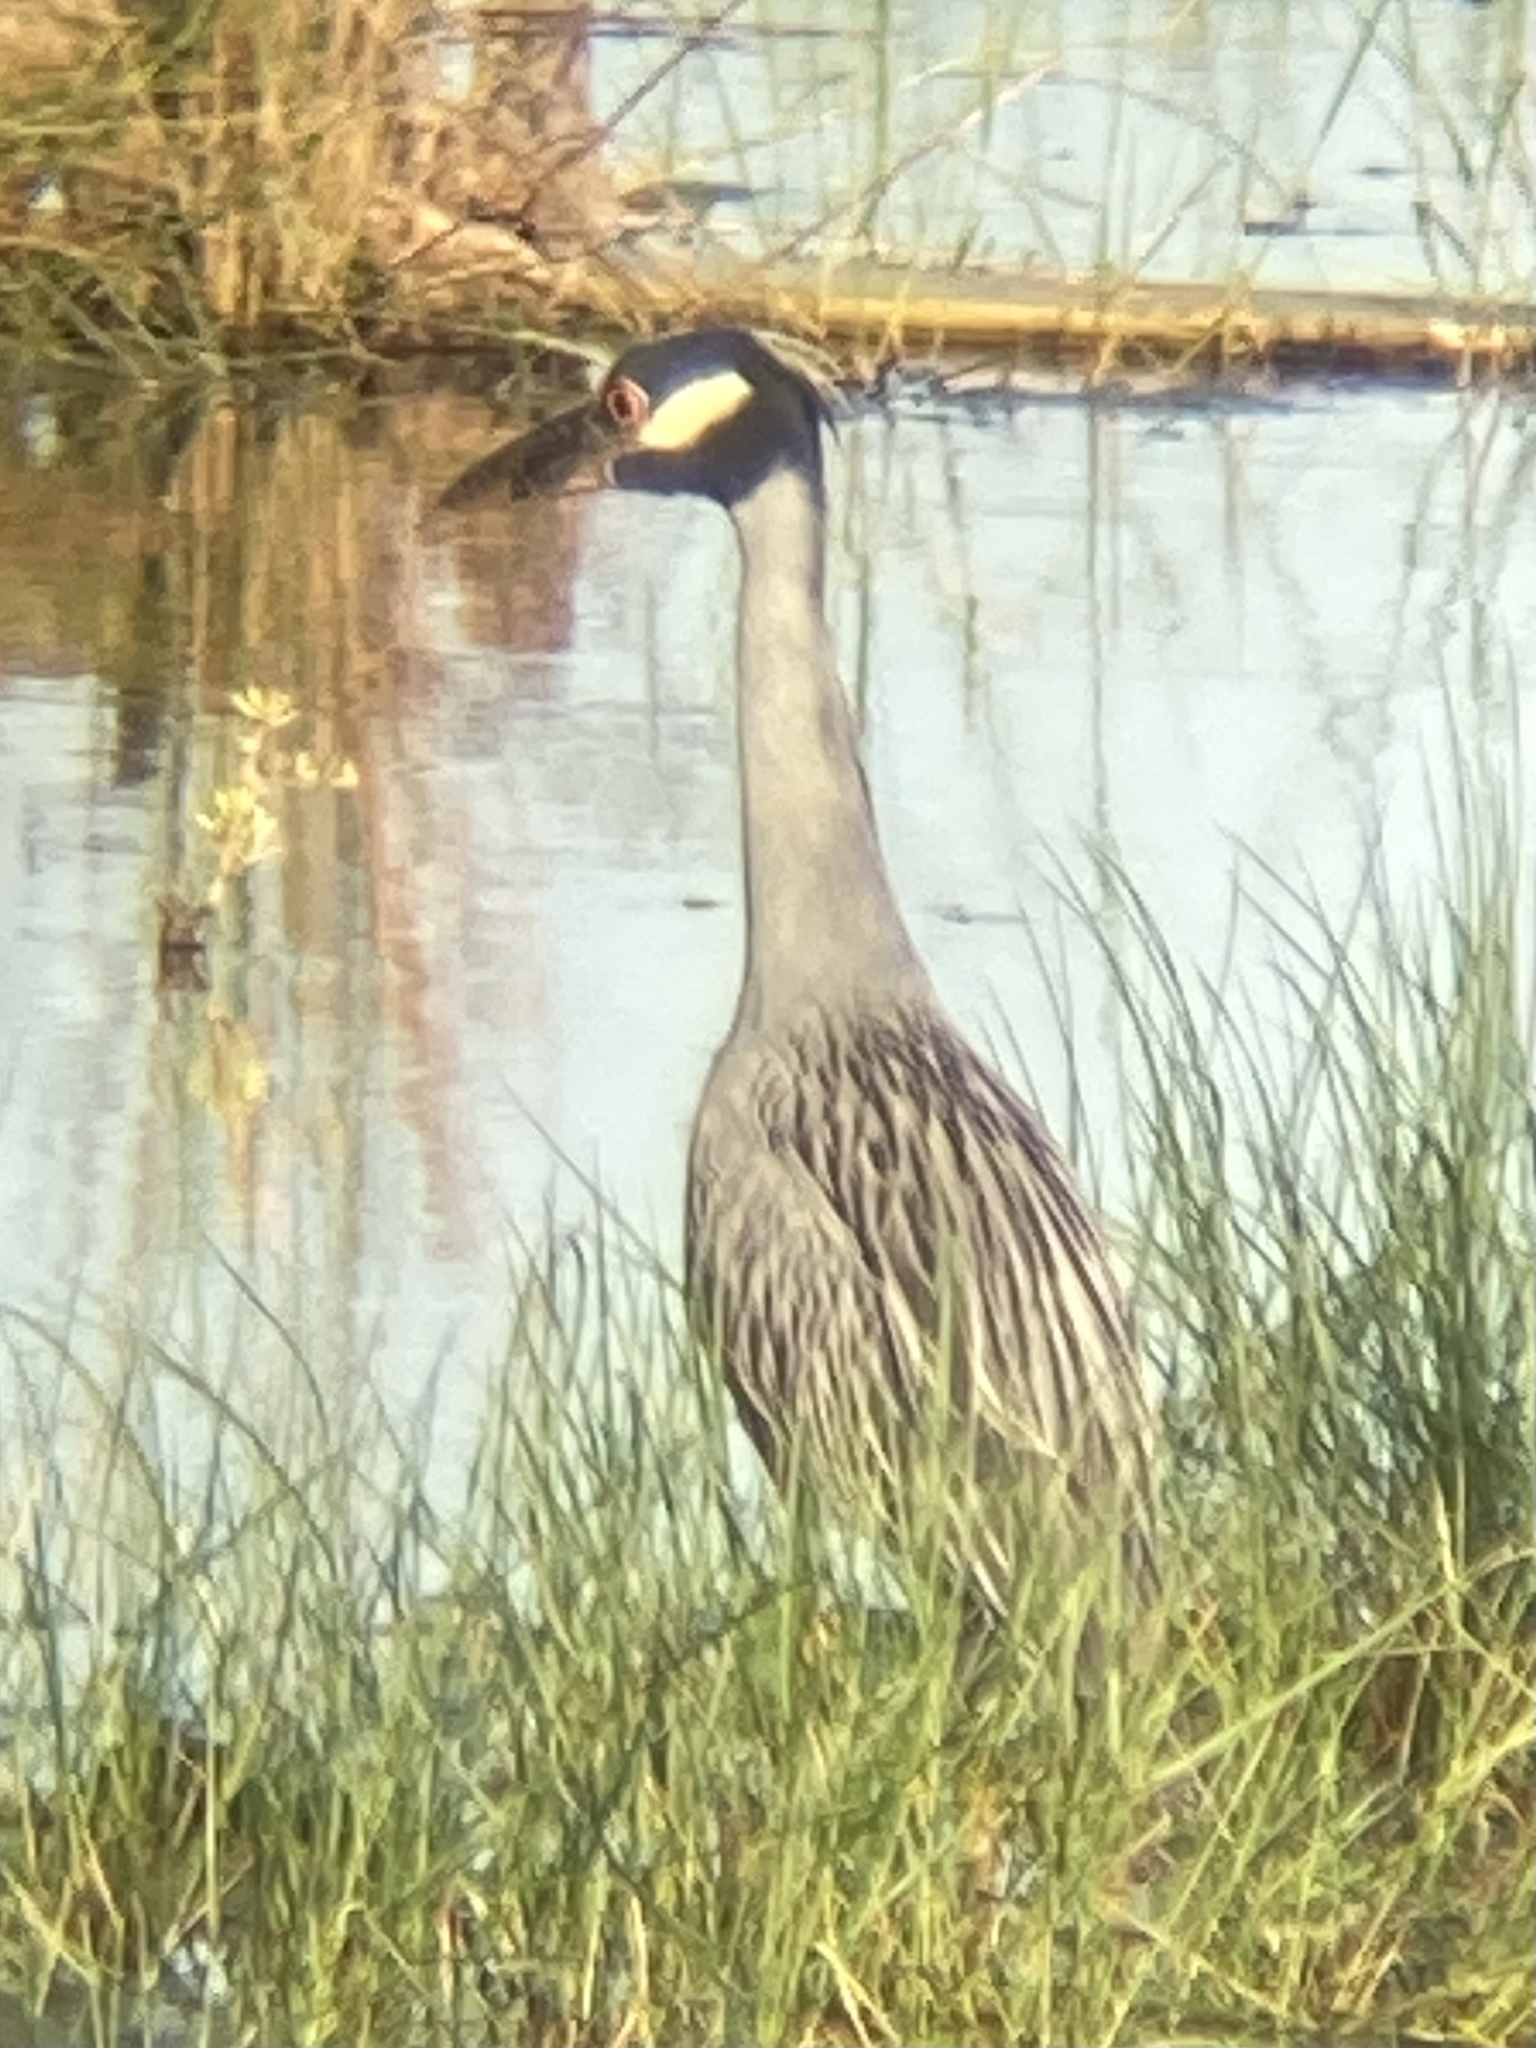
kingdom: Animalia
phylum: Chordata
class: Aves
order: Pelecaniformes
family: Ardeidae
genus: Nyctanassa
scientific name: Nyctanassa violacea
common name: Yellow-crowned night heron
